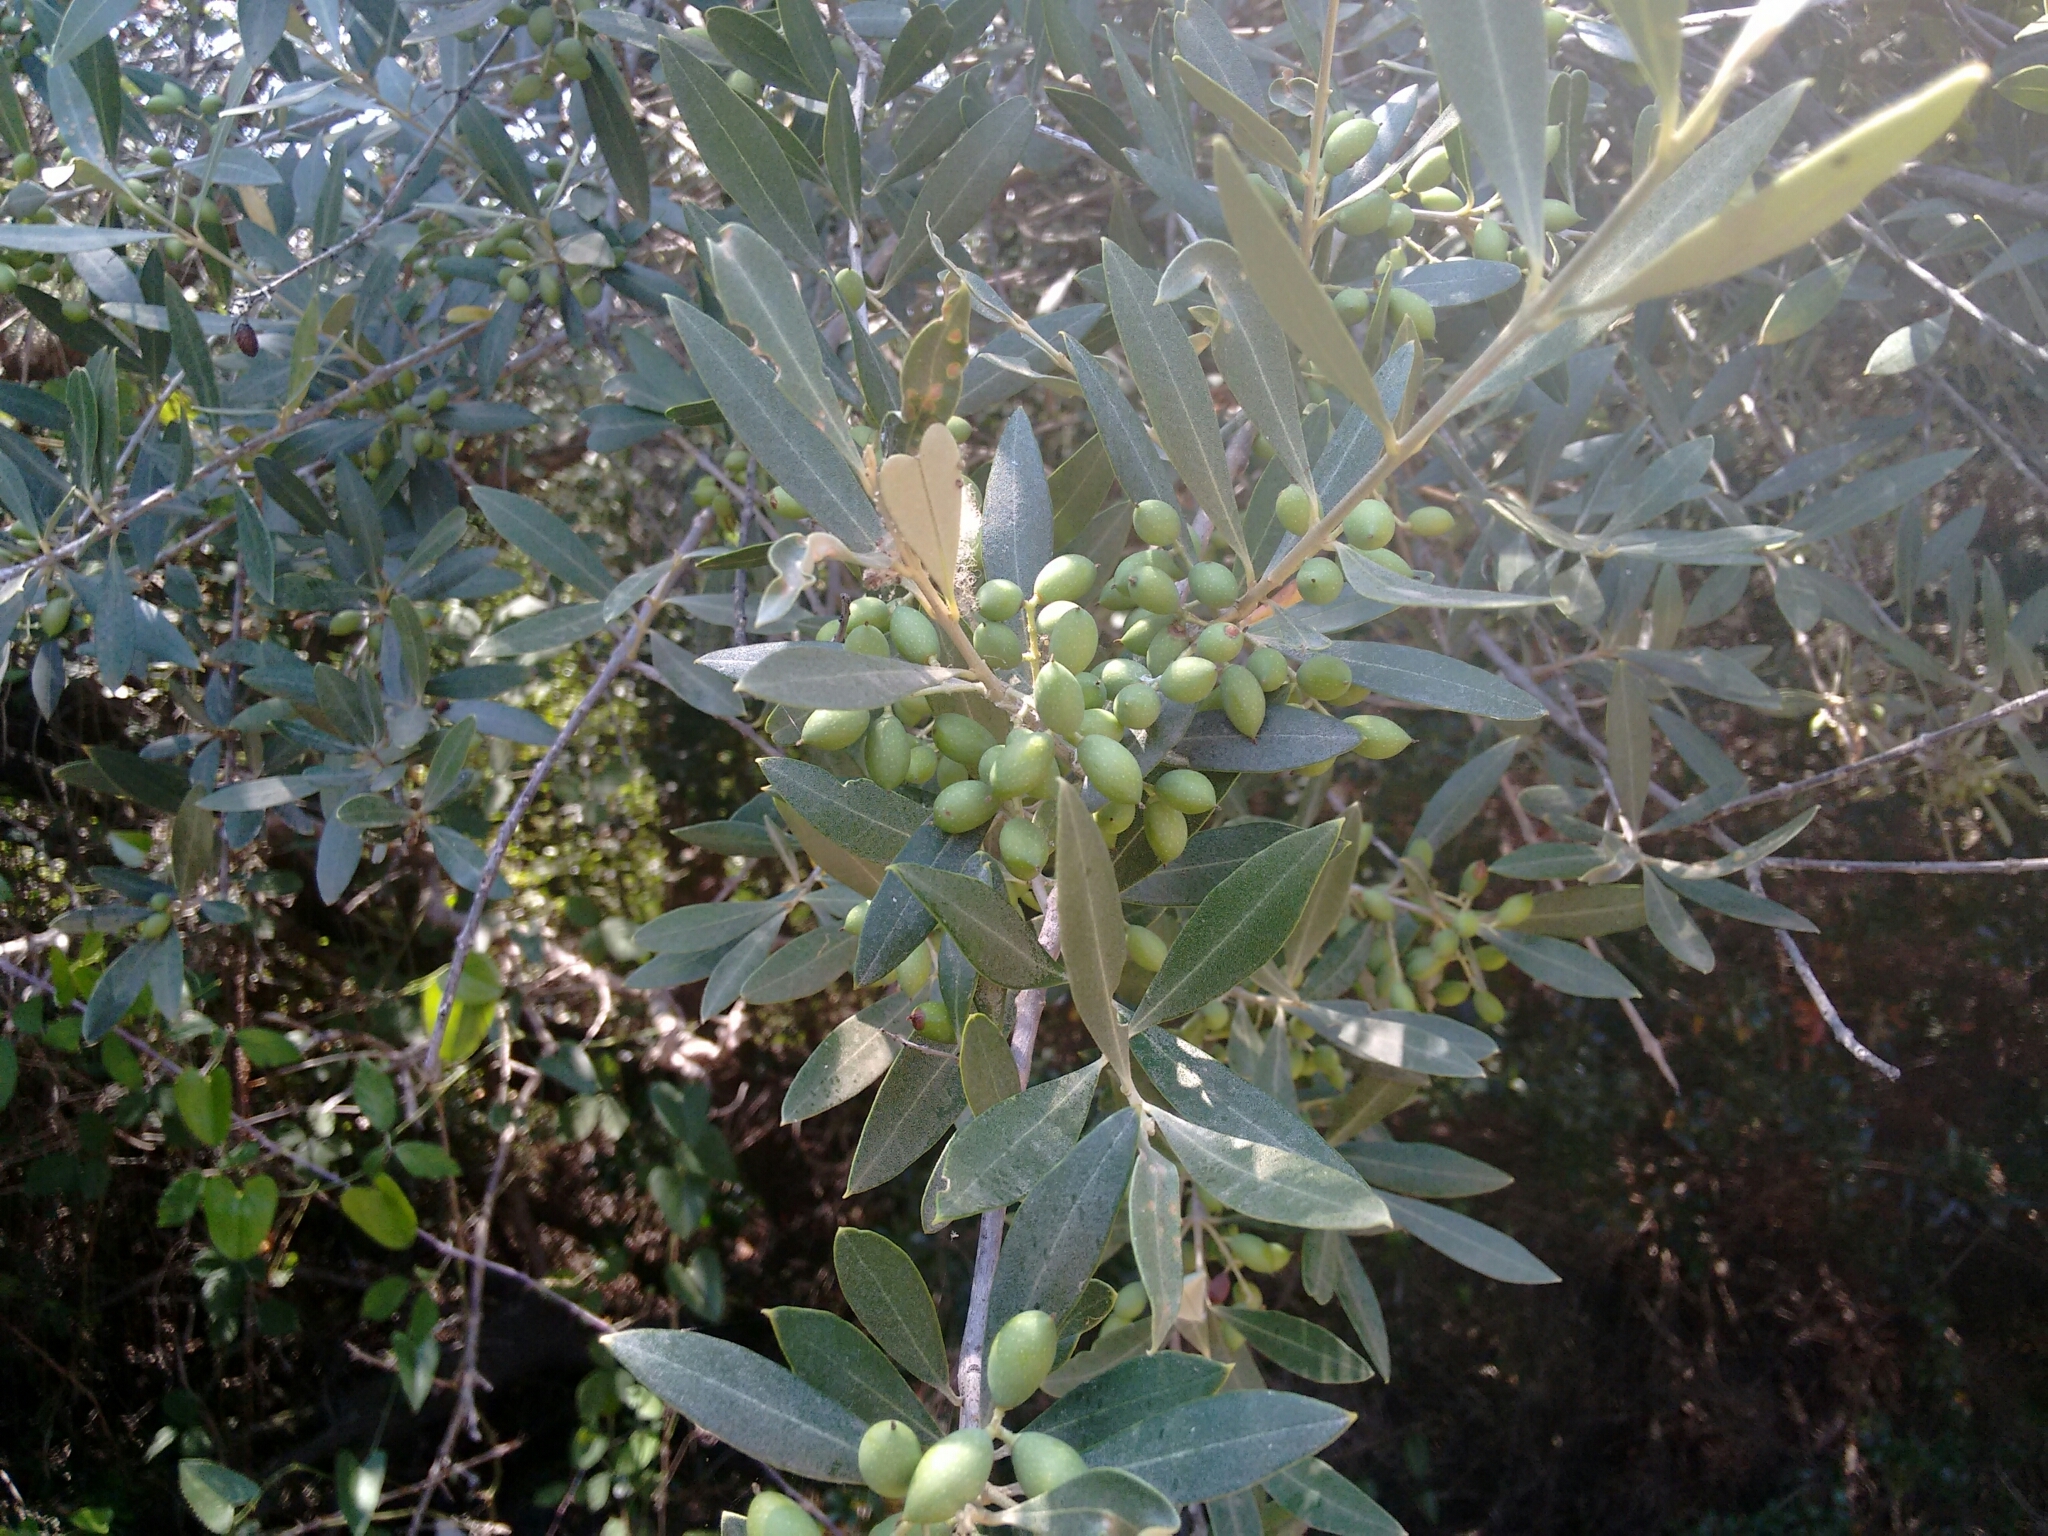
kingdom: Plantae
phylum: Tracheophyta
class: Magnoliopsida
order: Lamiales
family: Oleaceae
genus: Olea
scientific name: Olea europaea
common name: Olive
